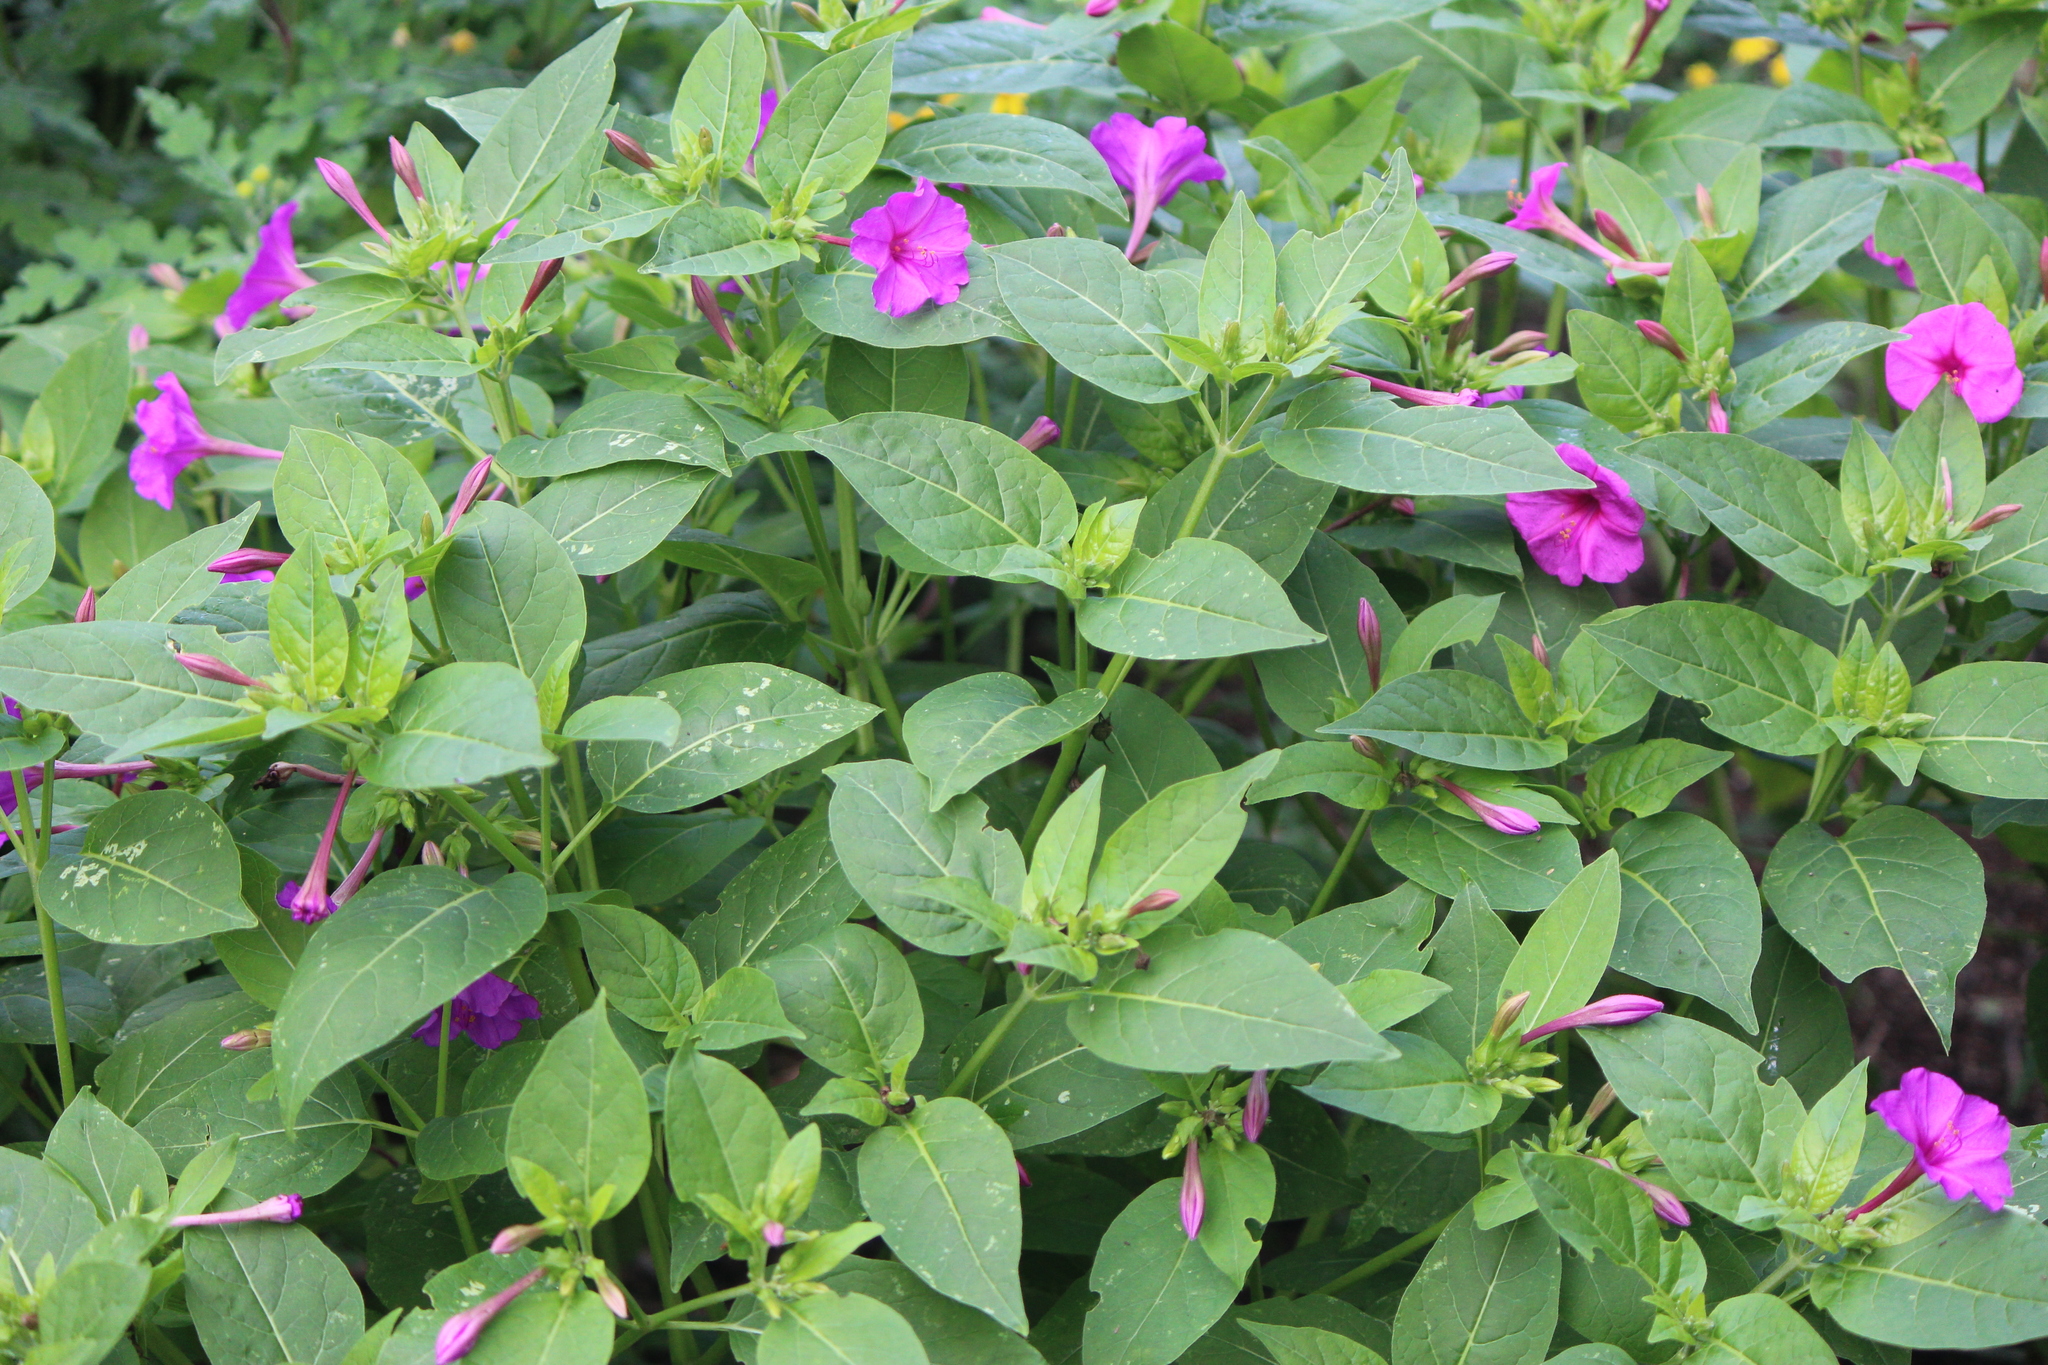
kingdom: Plantae
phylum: Tracheophyta
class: Magnoliopsida
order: Caryophyllales
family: Nyctaginaceae
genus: Mirabilis
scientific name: Mirabilis jalapa
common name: Marvel-of-peru
